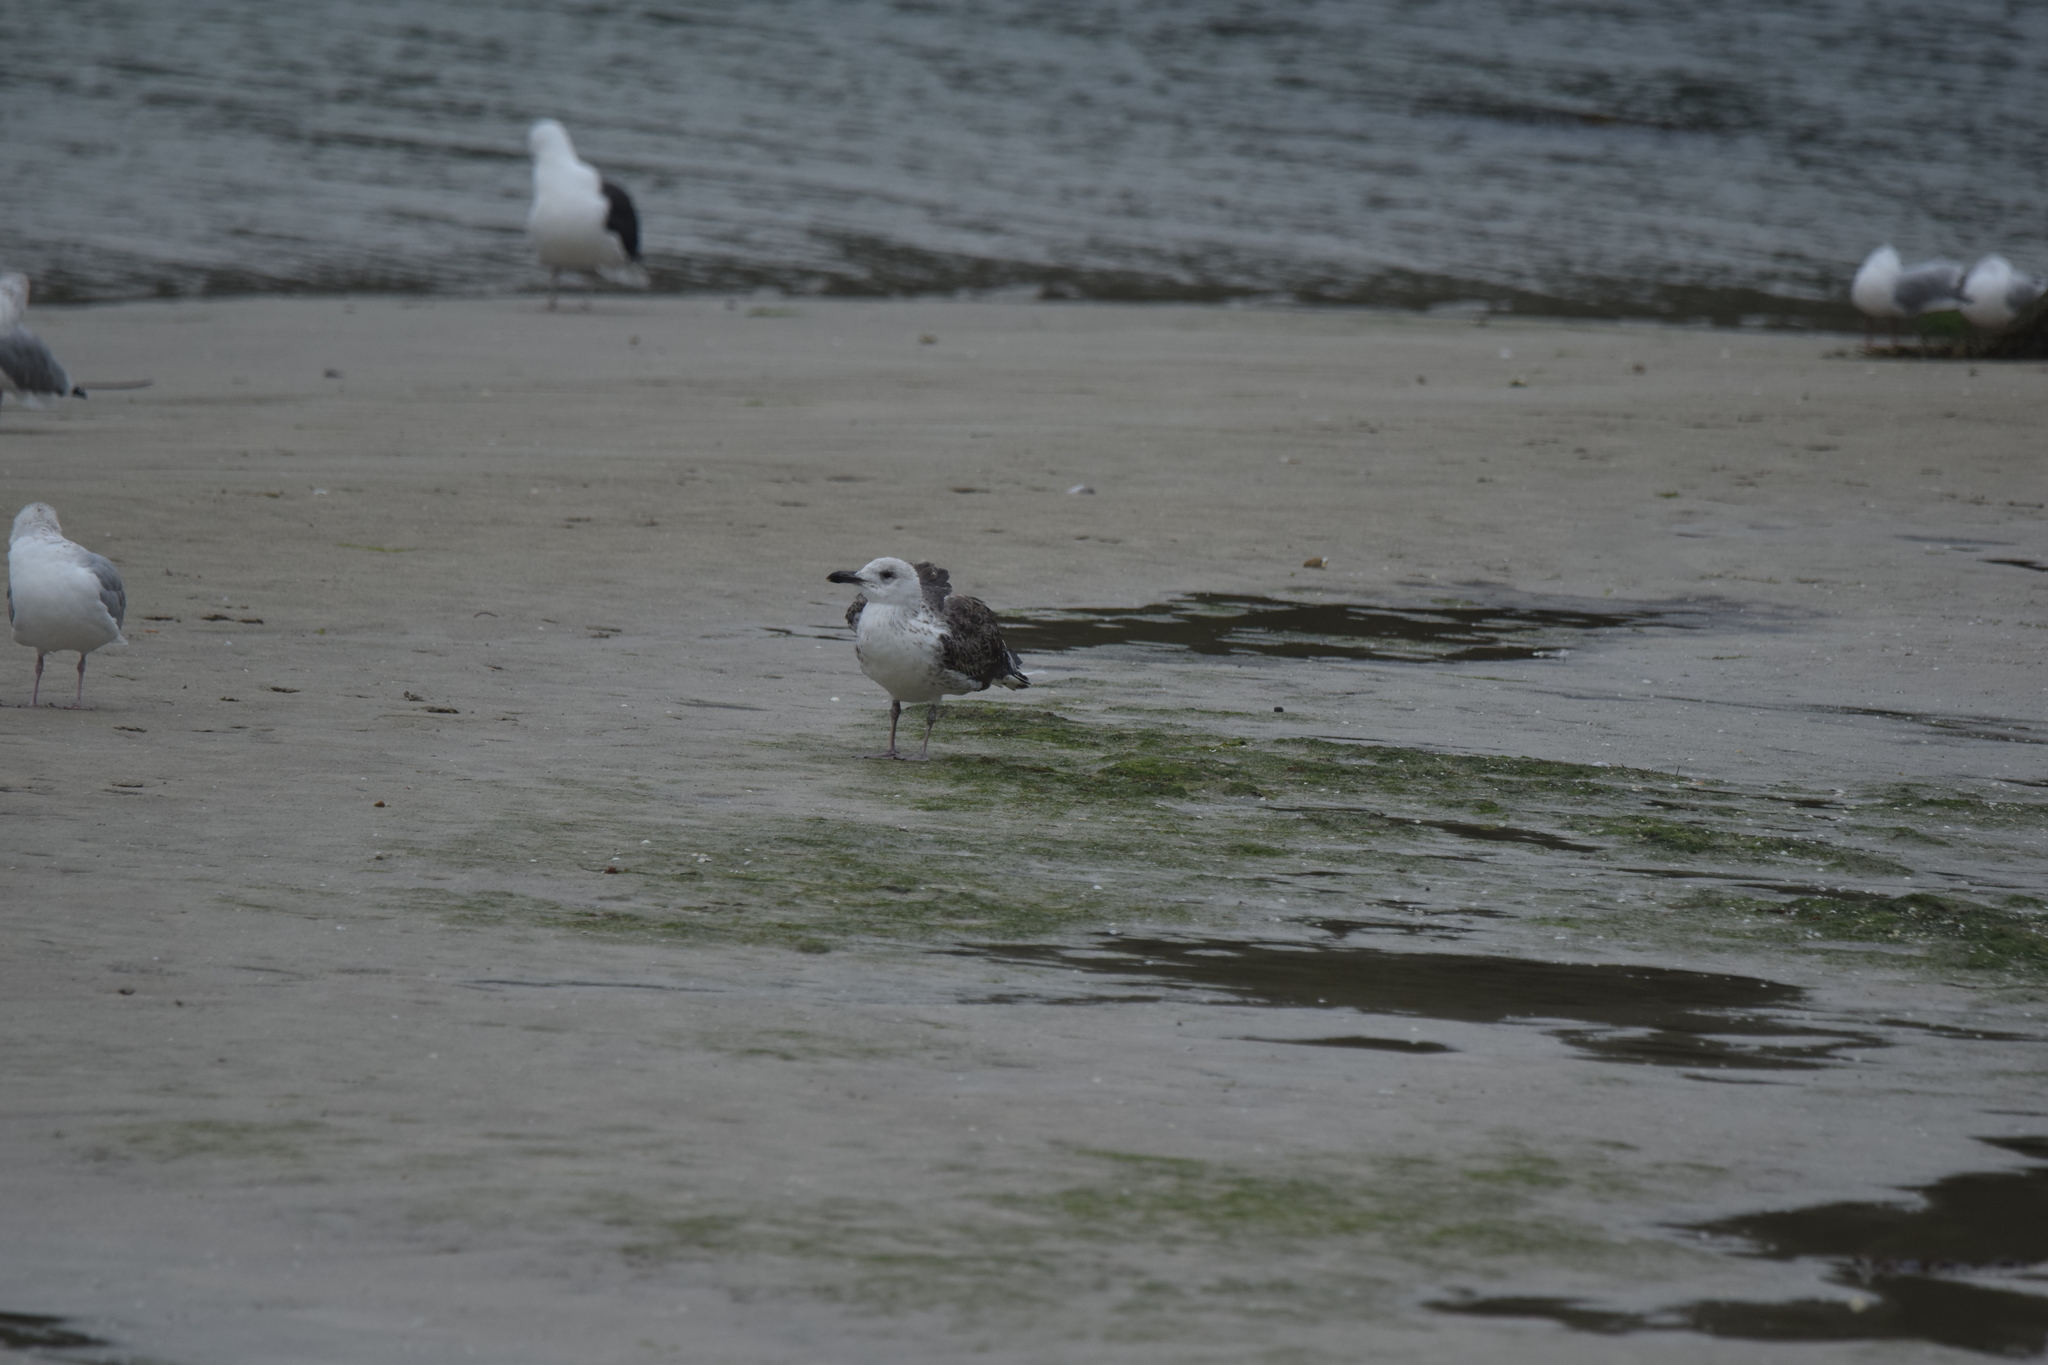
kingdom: Animalia
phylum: Chordata
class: Aves
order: Charadriiformes
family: Laridae
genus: Larus
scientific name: Larus fuscus
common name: Lesser black-backed gull
